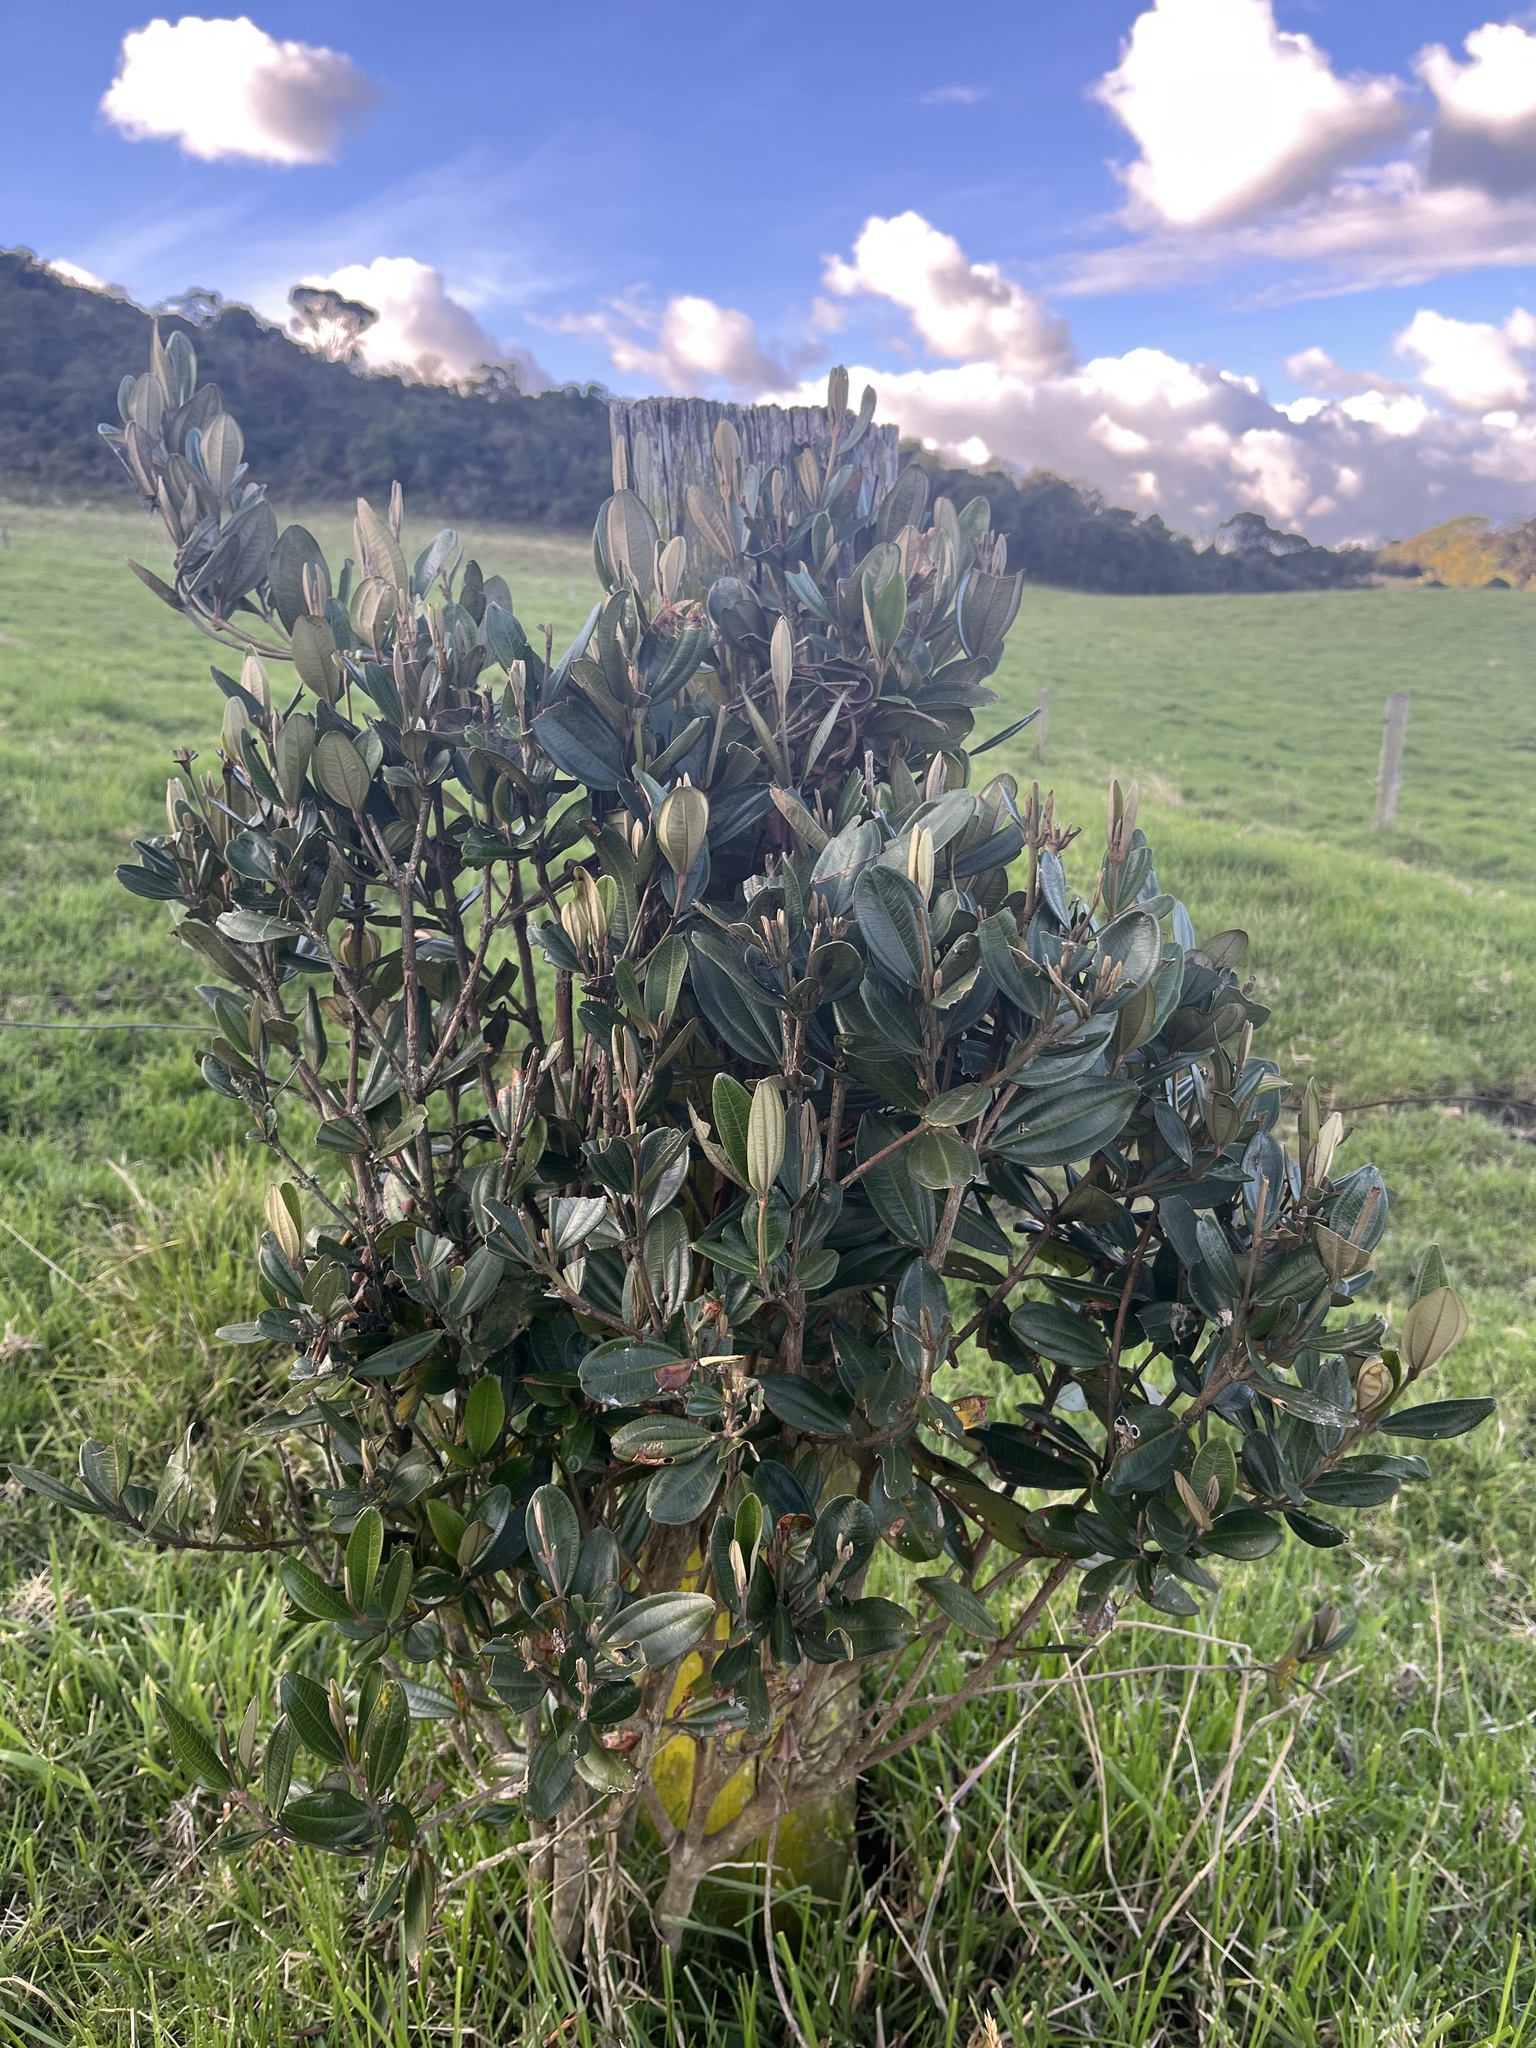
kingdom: Plantae
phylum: Tracheophyta
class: Magnoliopsida
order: Myrtales
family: Melastomataceae
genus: Miconia
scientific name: Miconia squamulosa
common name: Squamulose maya
